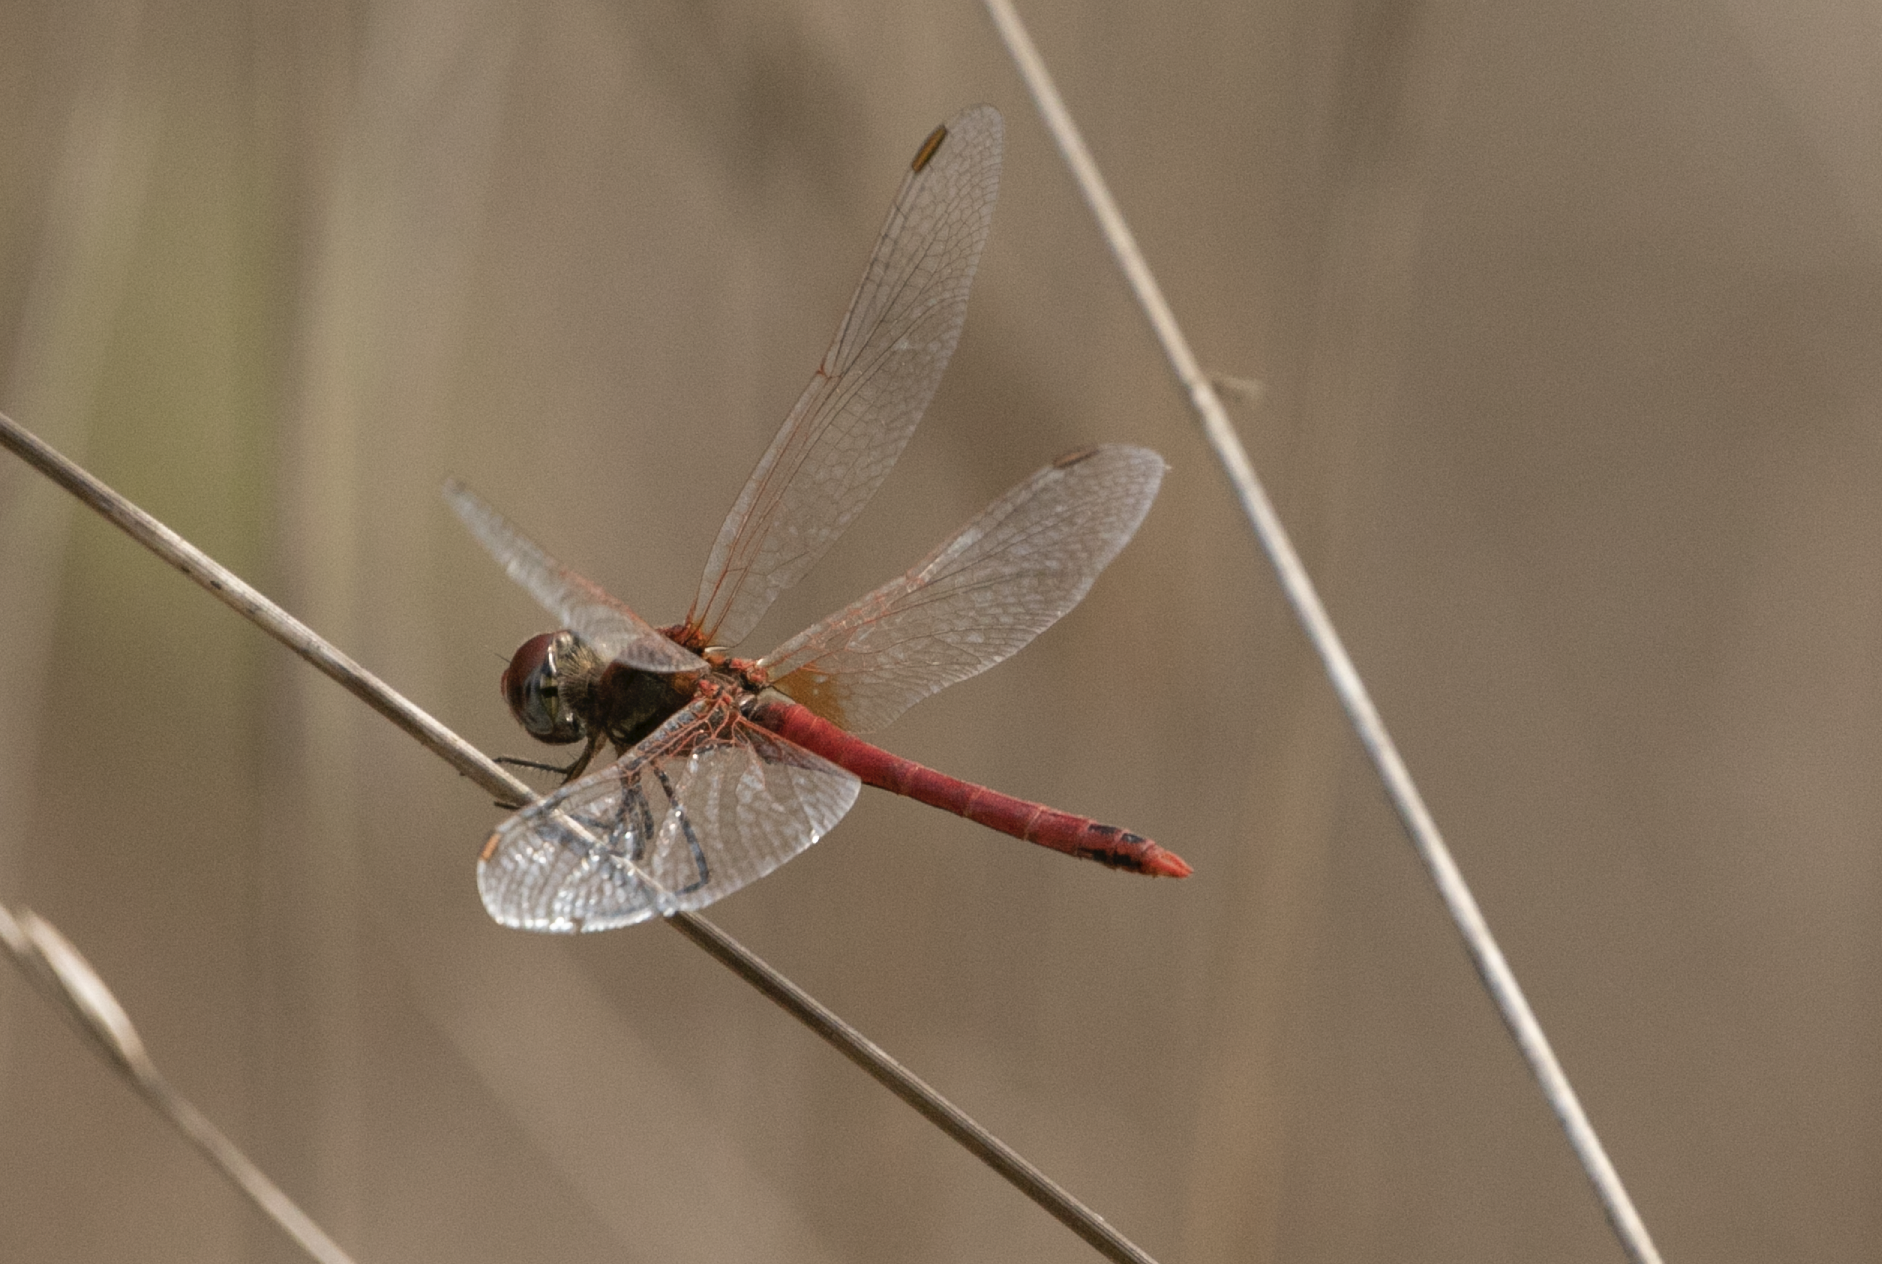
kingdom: Animalia
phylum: Arthropoda
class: Insecta
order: Odonata
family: Libellulidae
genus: Sympetrum
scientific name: Sympetrum fonscolombii
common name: Red-veined darter
